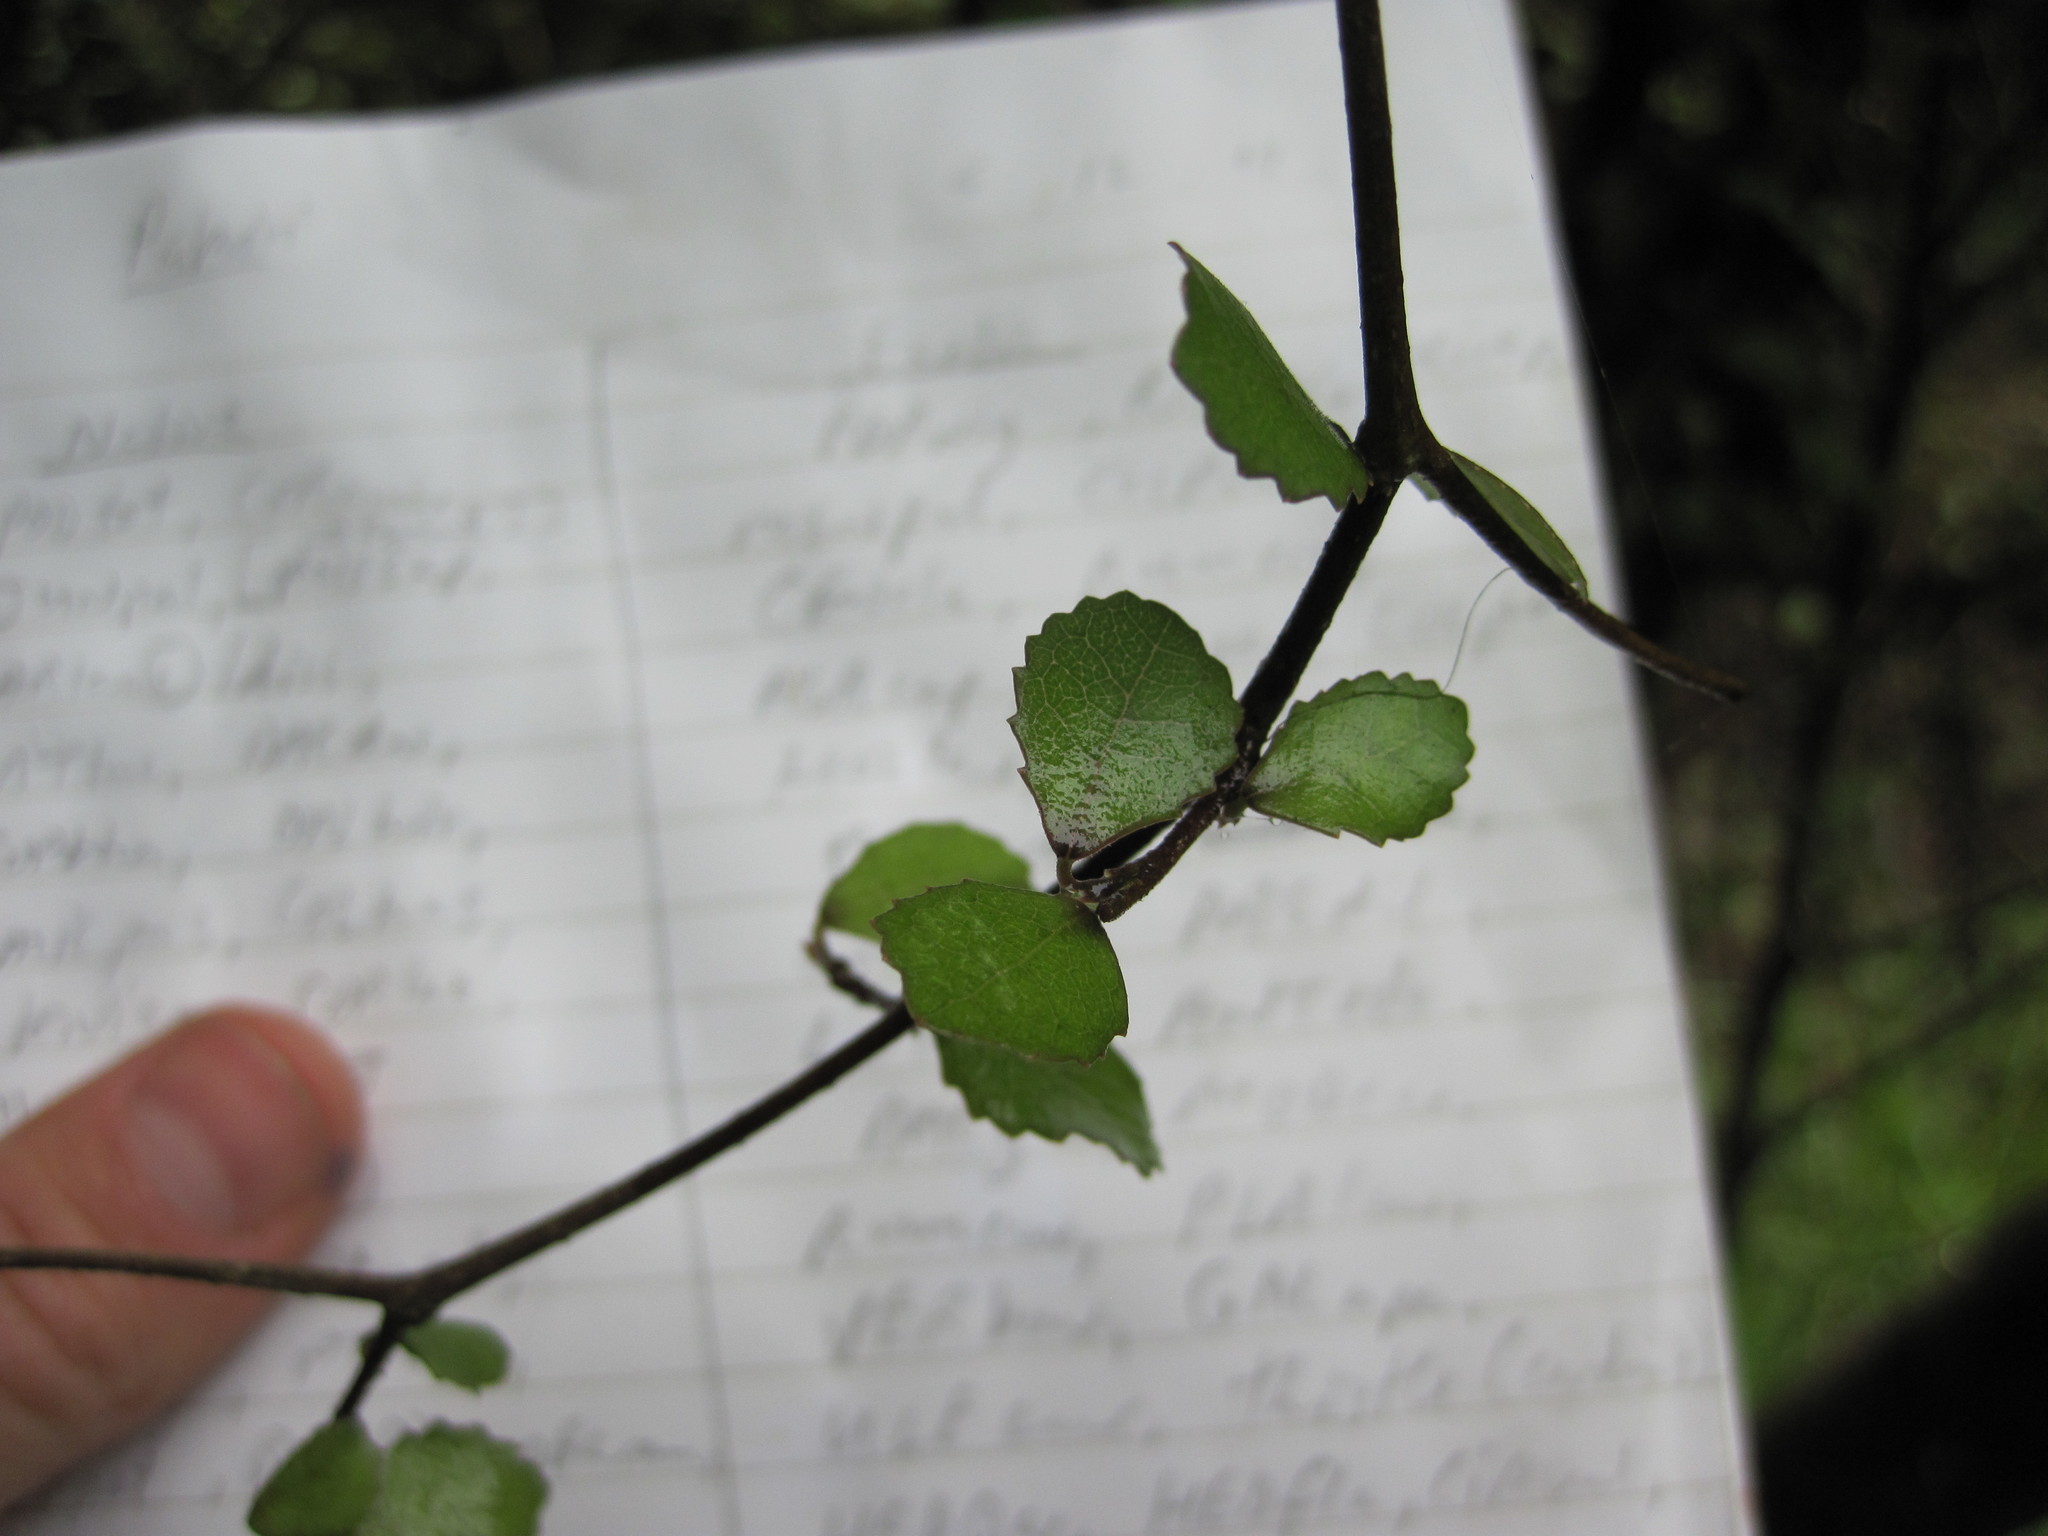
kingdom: Plantae
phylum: Tracheophyta
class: Magnoliopsida
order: Rosales
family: Moraceae
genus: Paratrophis
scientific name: Paratrophis microphylla
